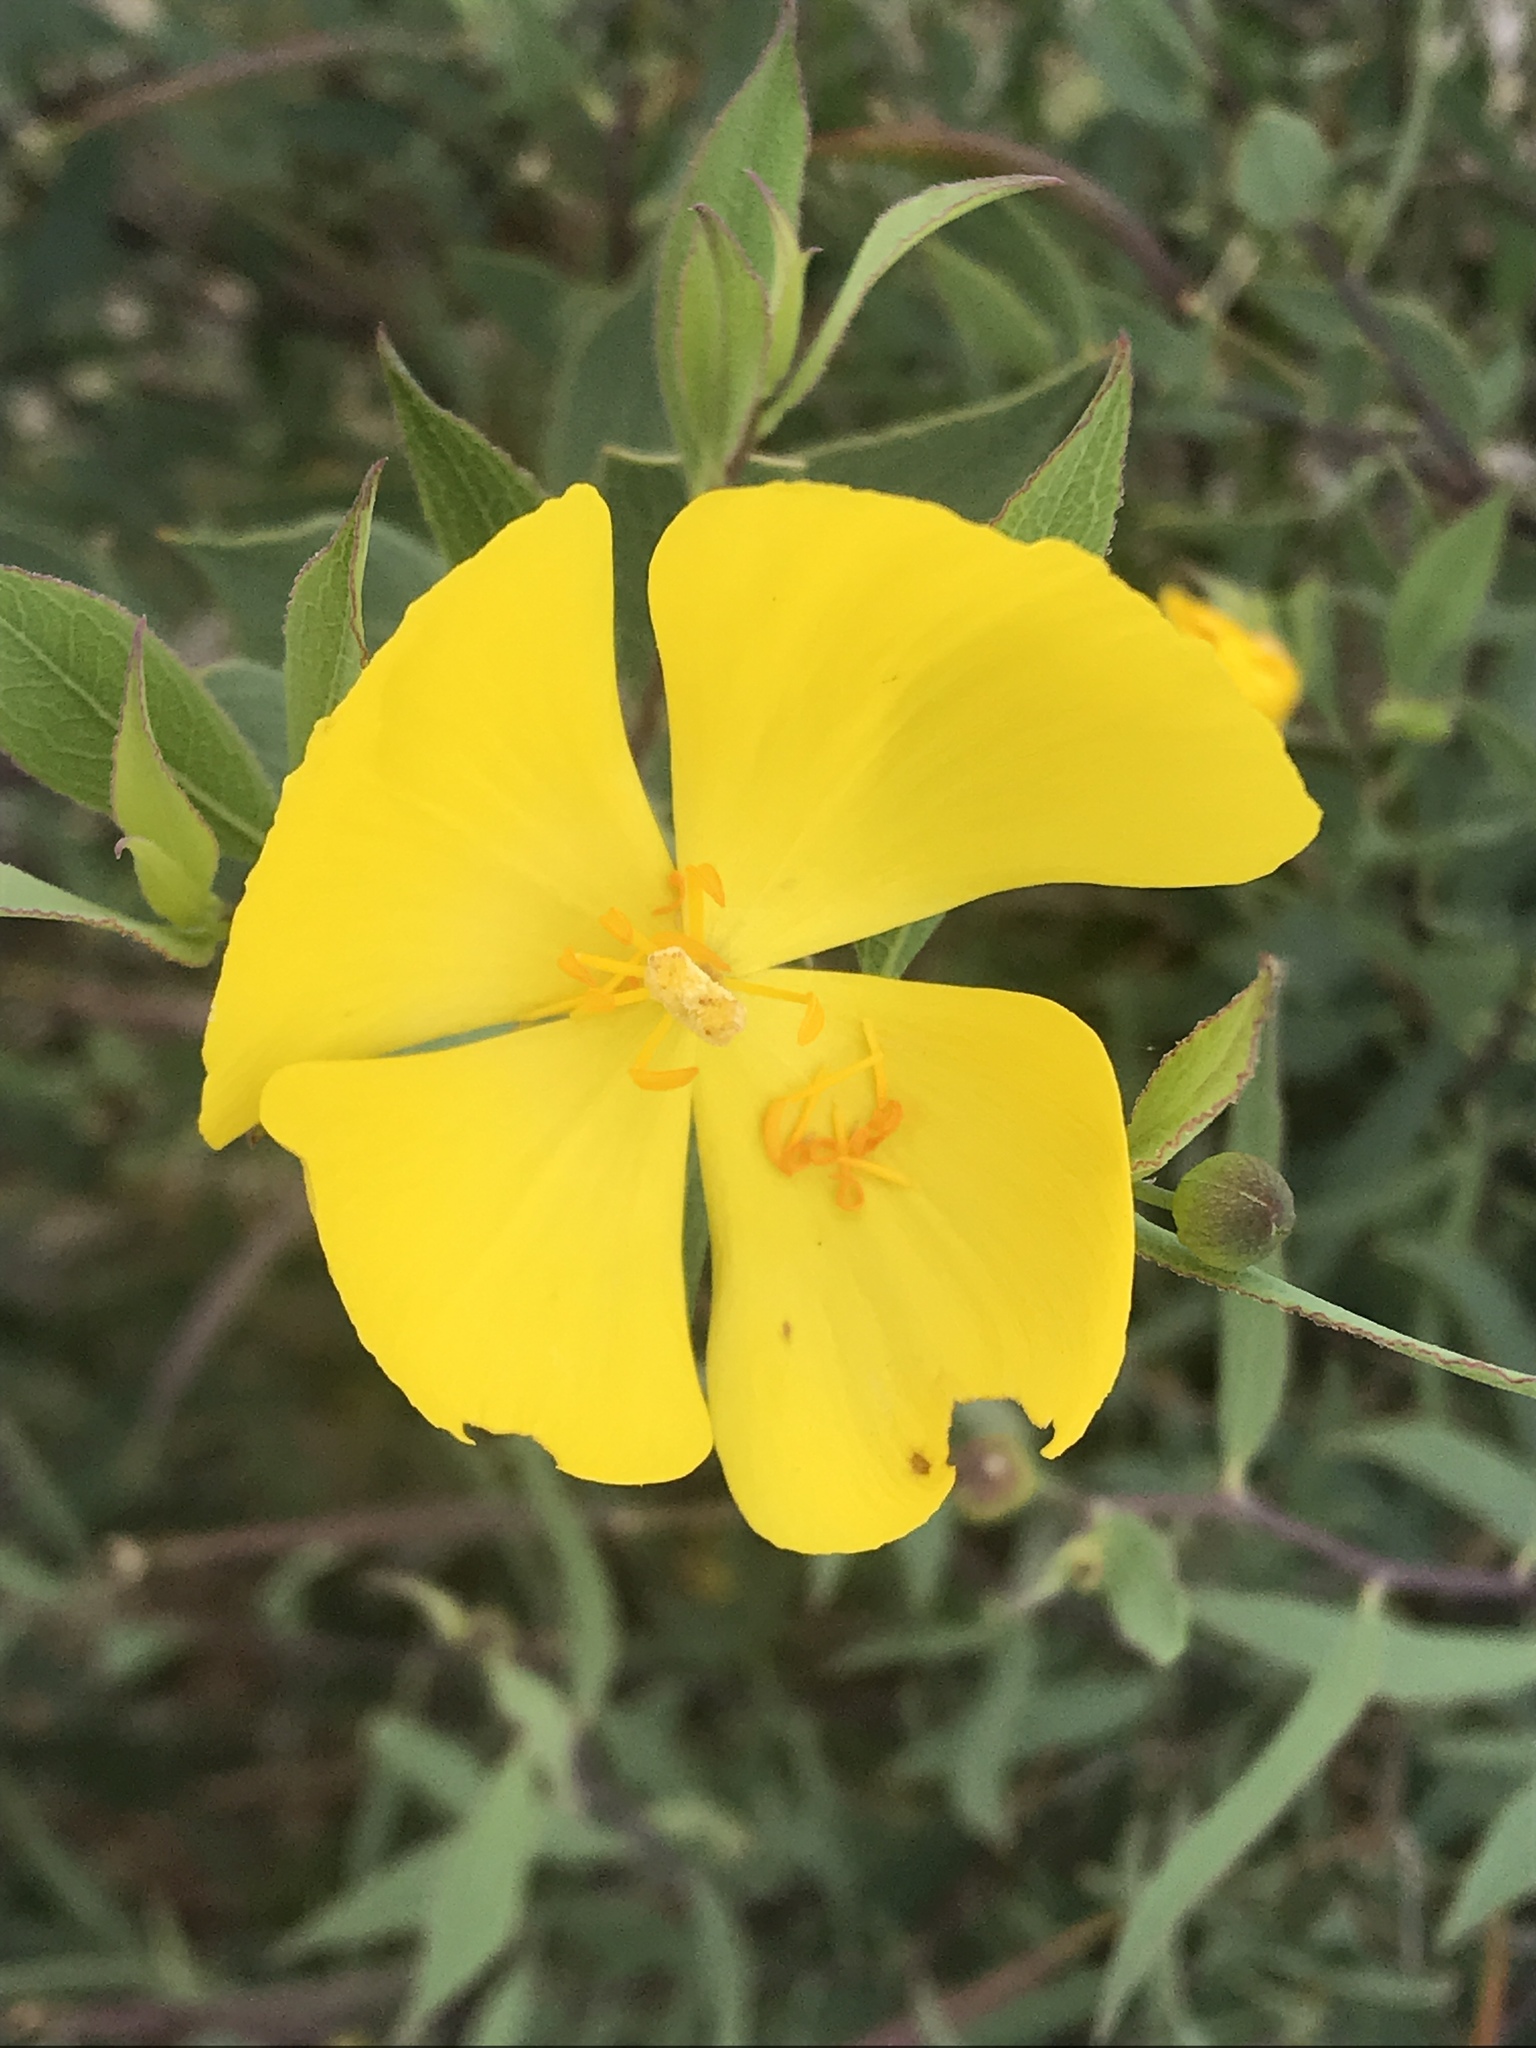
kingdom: Plantae
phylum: Tracheophyta
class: Magnoliopsida
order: Ranunculales
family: Papaveraceae
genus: Dendromecon
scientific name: Dendromecon rigida
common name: Tree poppy
